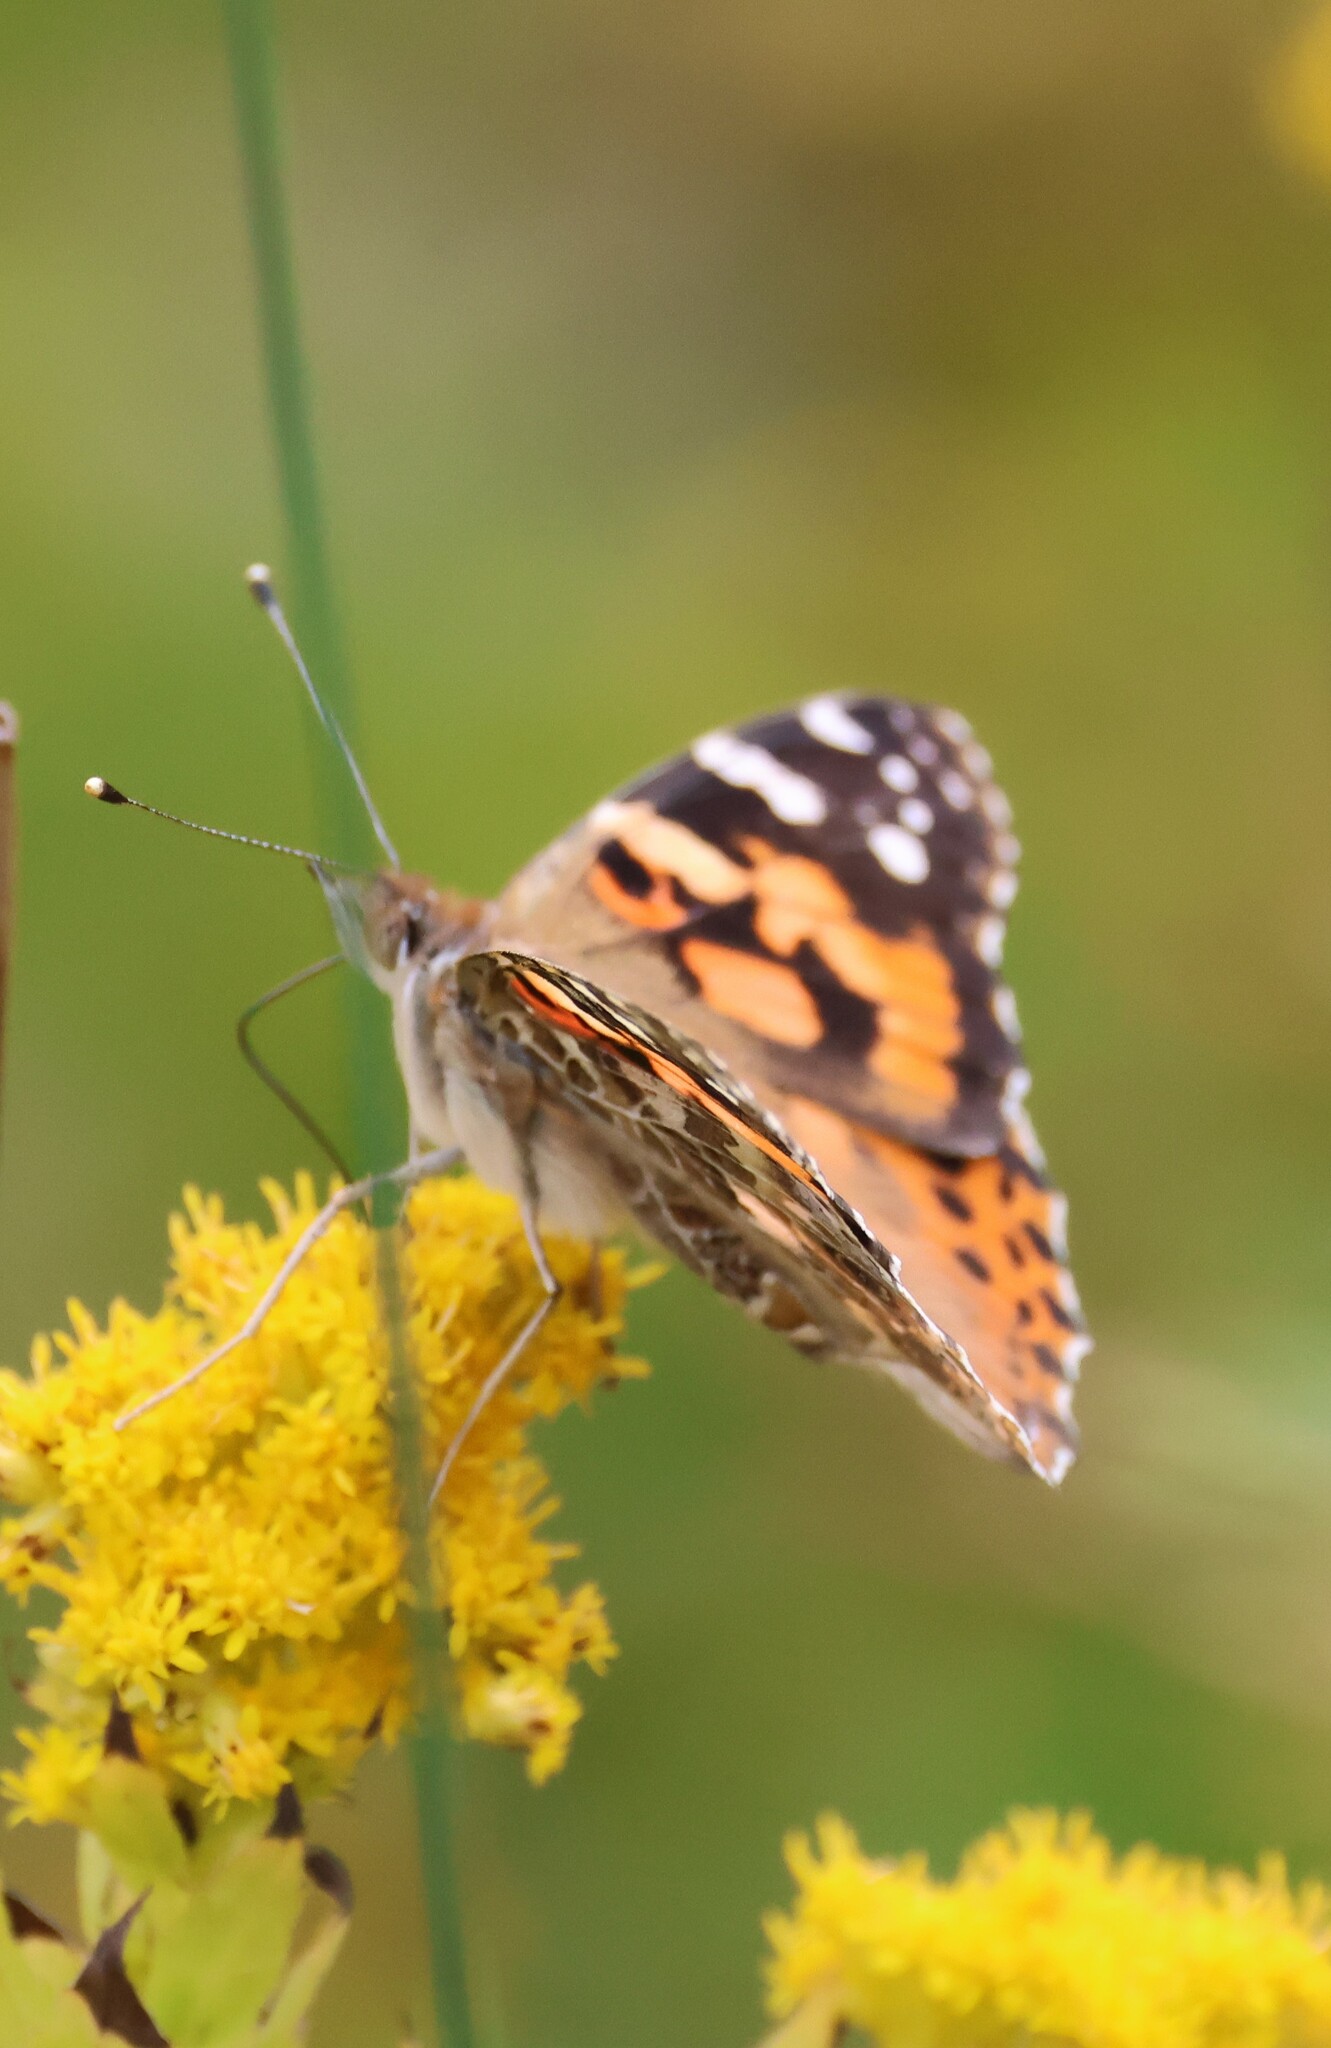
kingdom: Animalia
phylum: Arthropoda
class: Insecta
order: Lepidoptera
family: Nymphalidae
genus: Vanessa
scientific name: Vanessa cardui
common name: Painted lady
